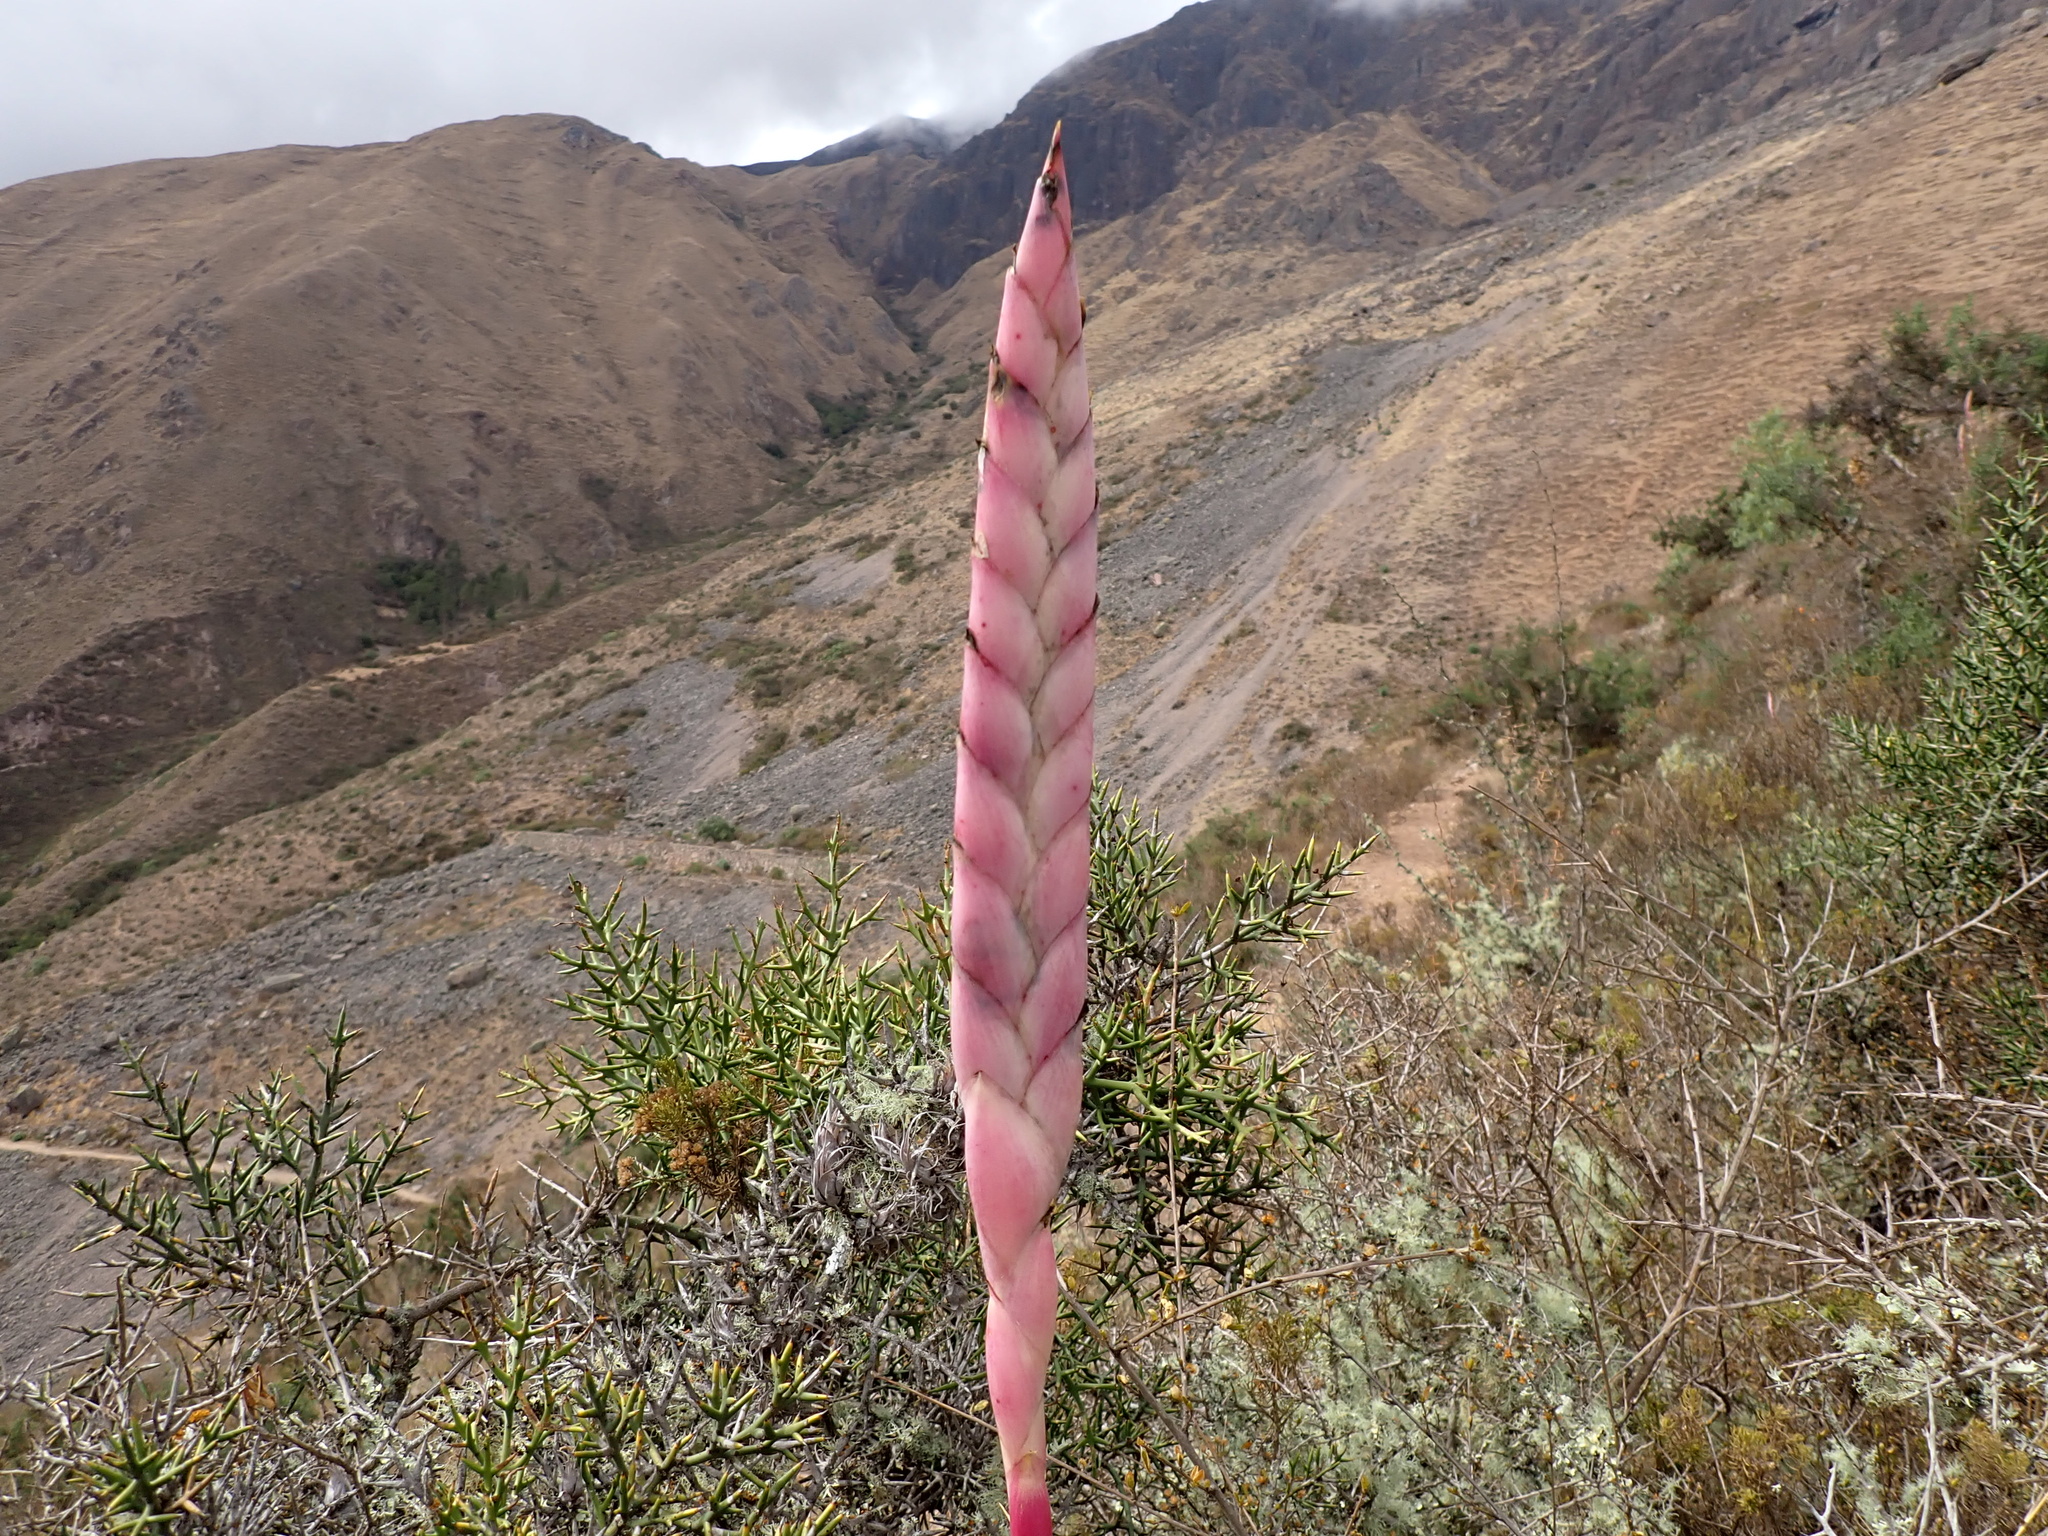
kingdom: Plantae
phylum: Tracheophyta
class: Liliopsida
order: Poales
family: Bromeliaceae
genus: Tillandsia
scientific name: Tillandsia walteri
